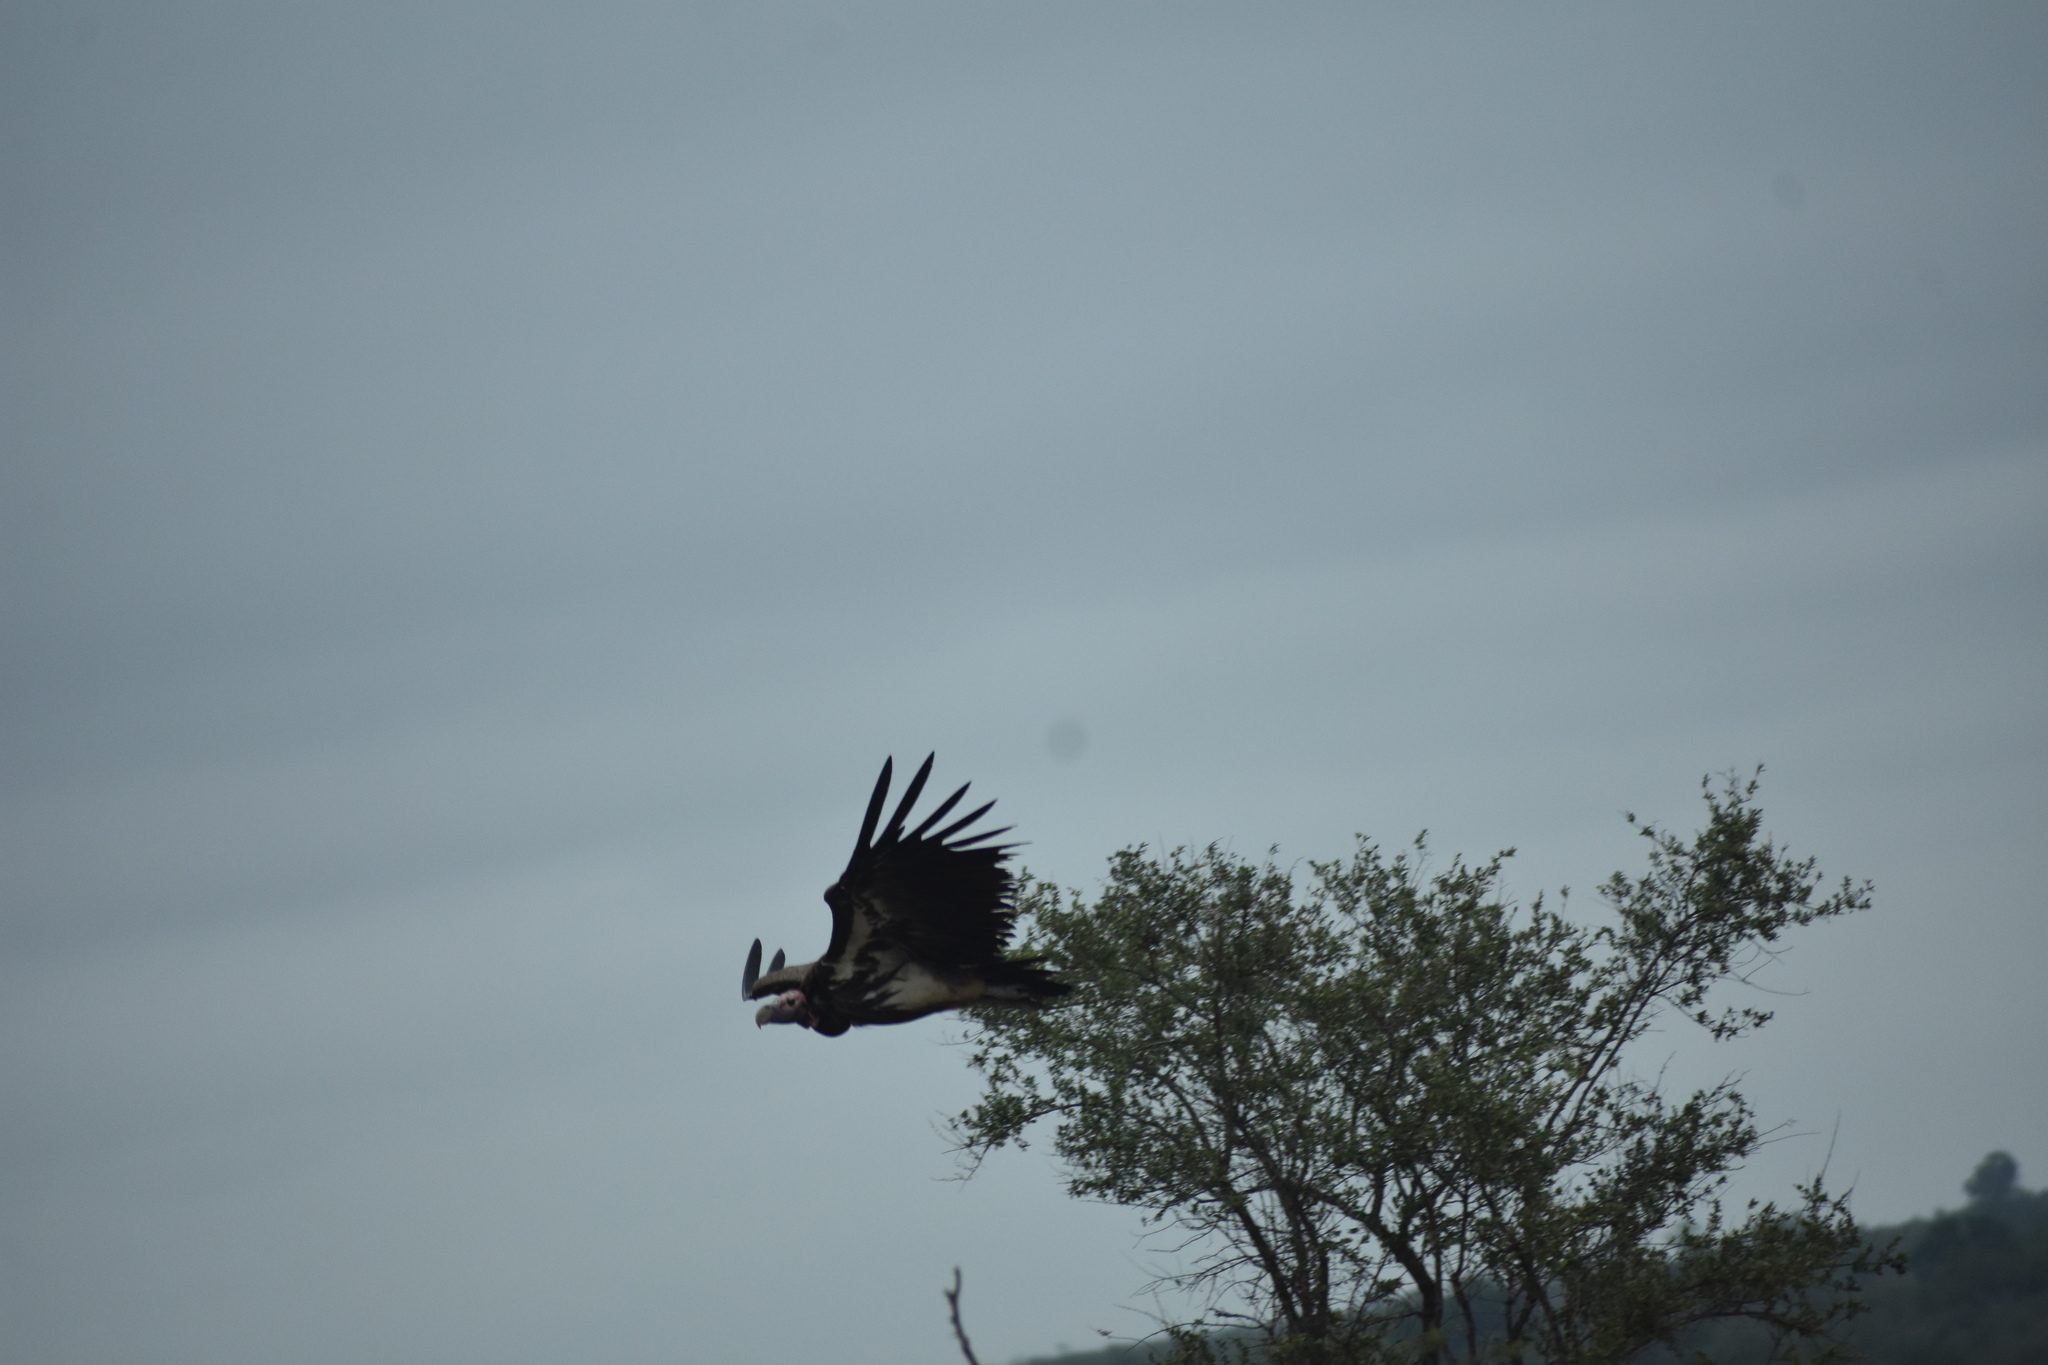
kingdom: Animalia
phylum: Chordata
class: Aves
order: Accipitriformes
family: Accipitridae
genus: Torgos
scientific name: Torgos tracheliotos
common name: Lappet-faced vulture
